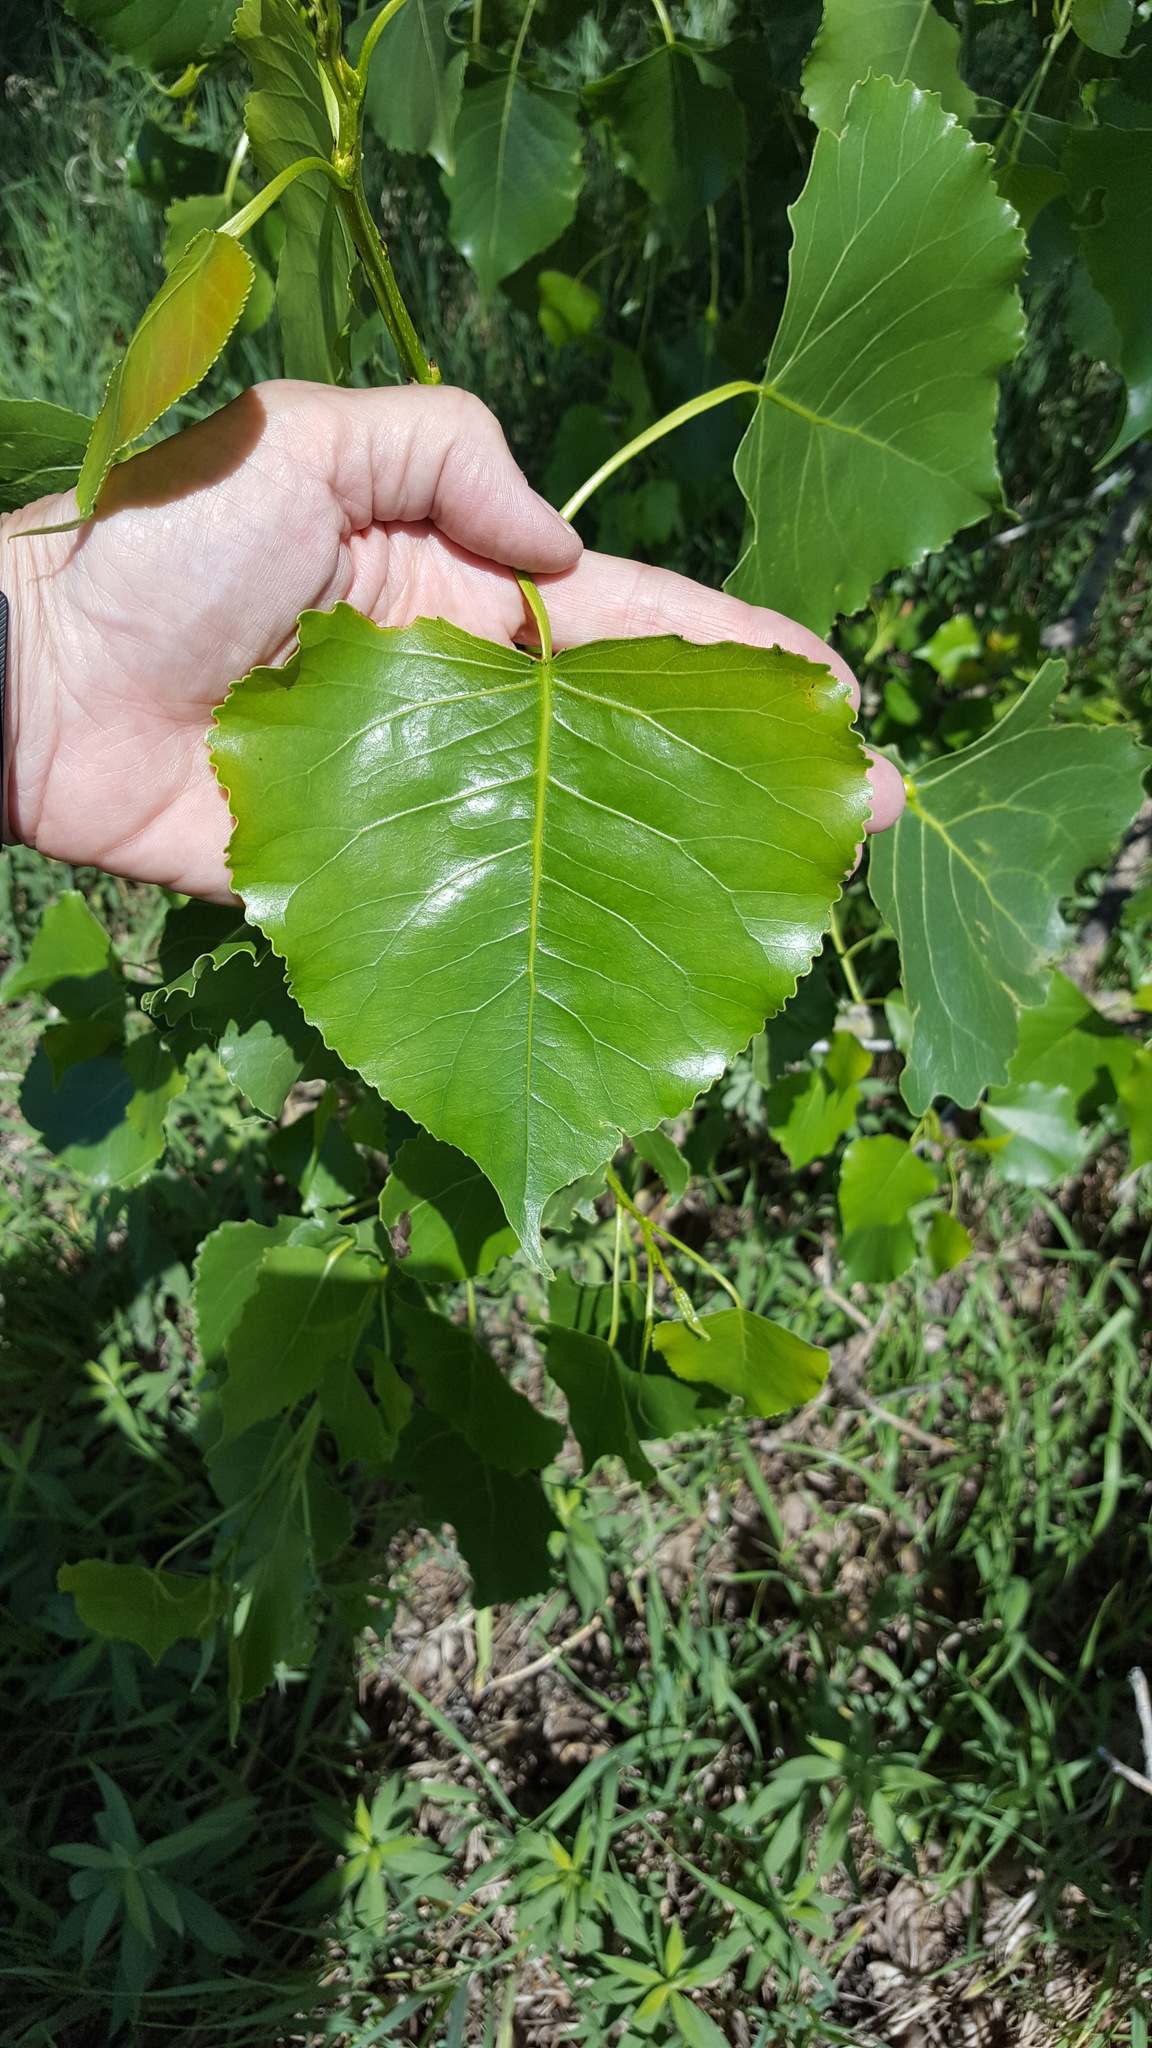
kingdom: Plantae
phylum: Tracheophyta
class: Magnoliopsida
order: Malpighiales
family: Salicaceae
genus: Populus
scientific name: Populus deltoides
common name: Eastern cottonwood
